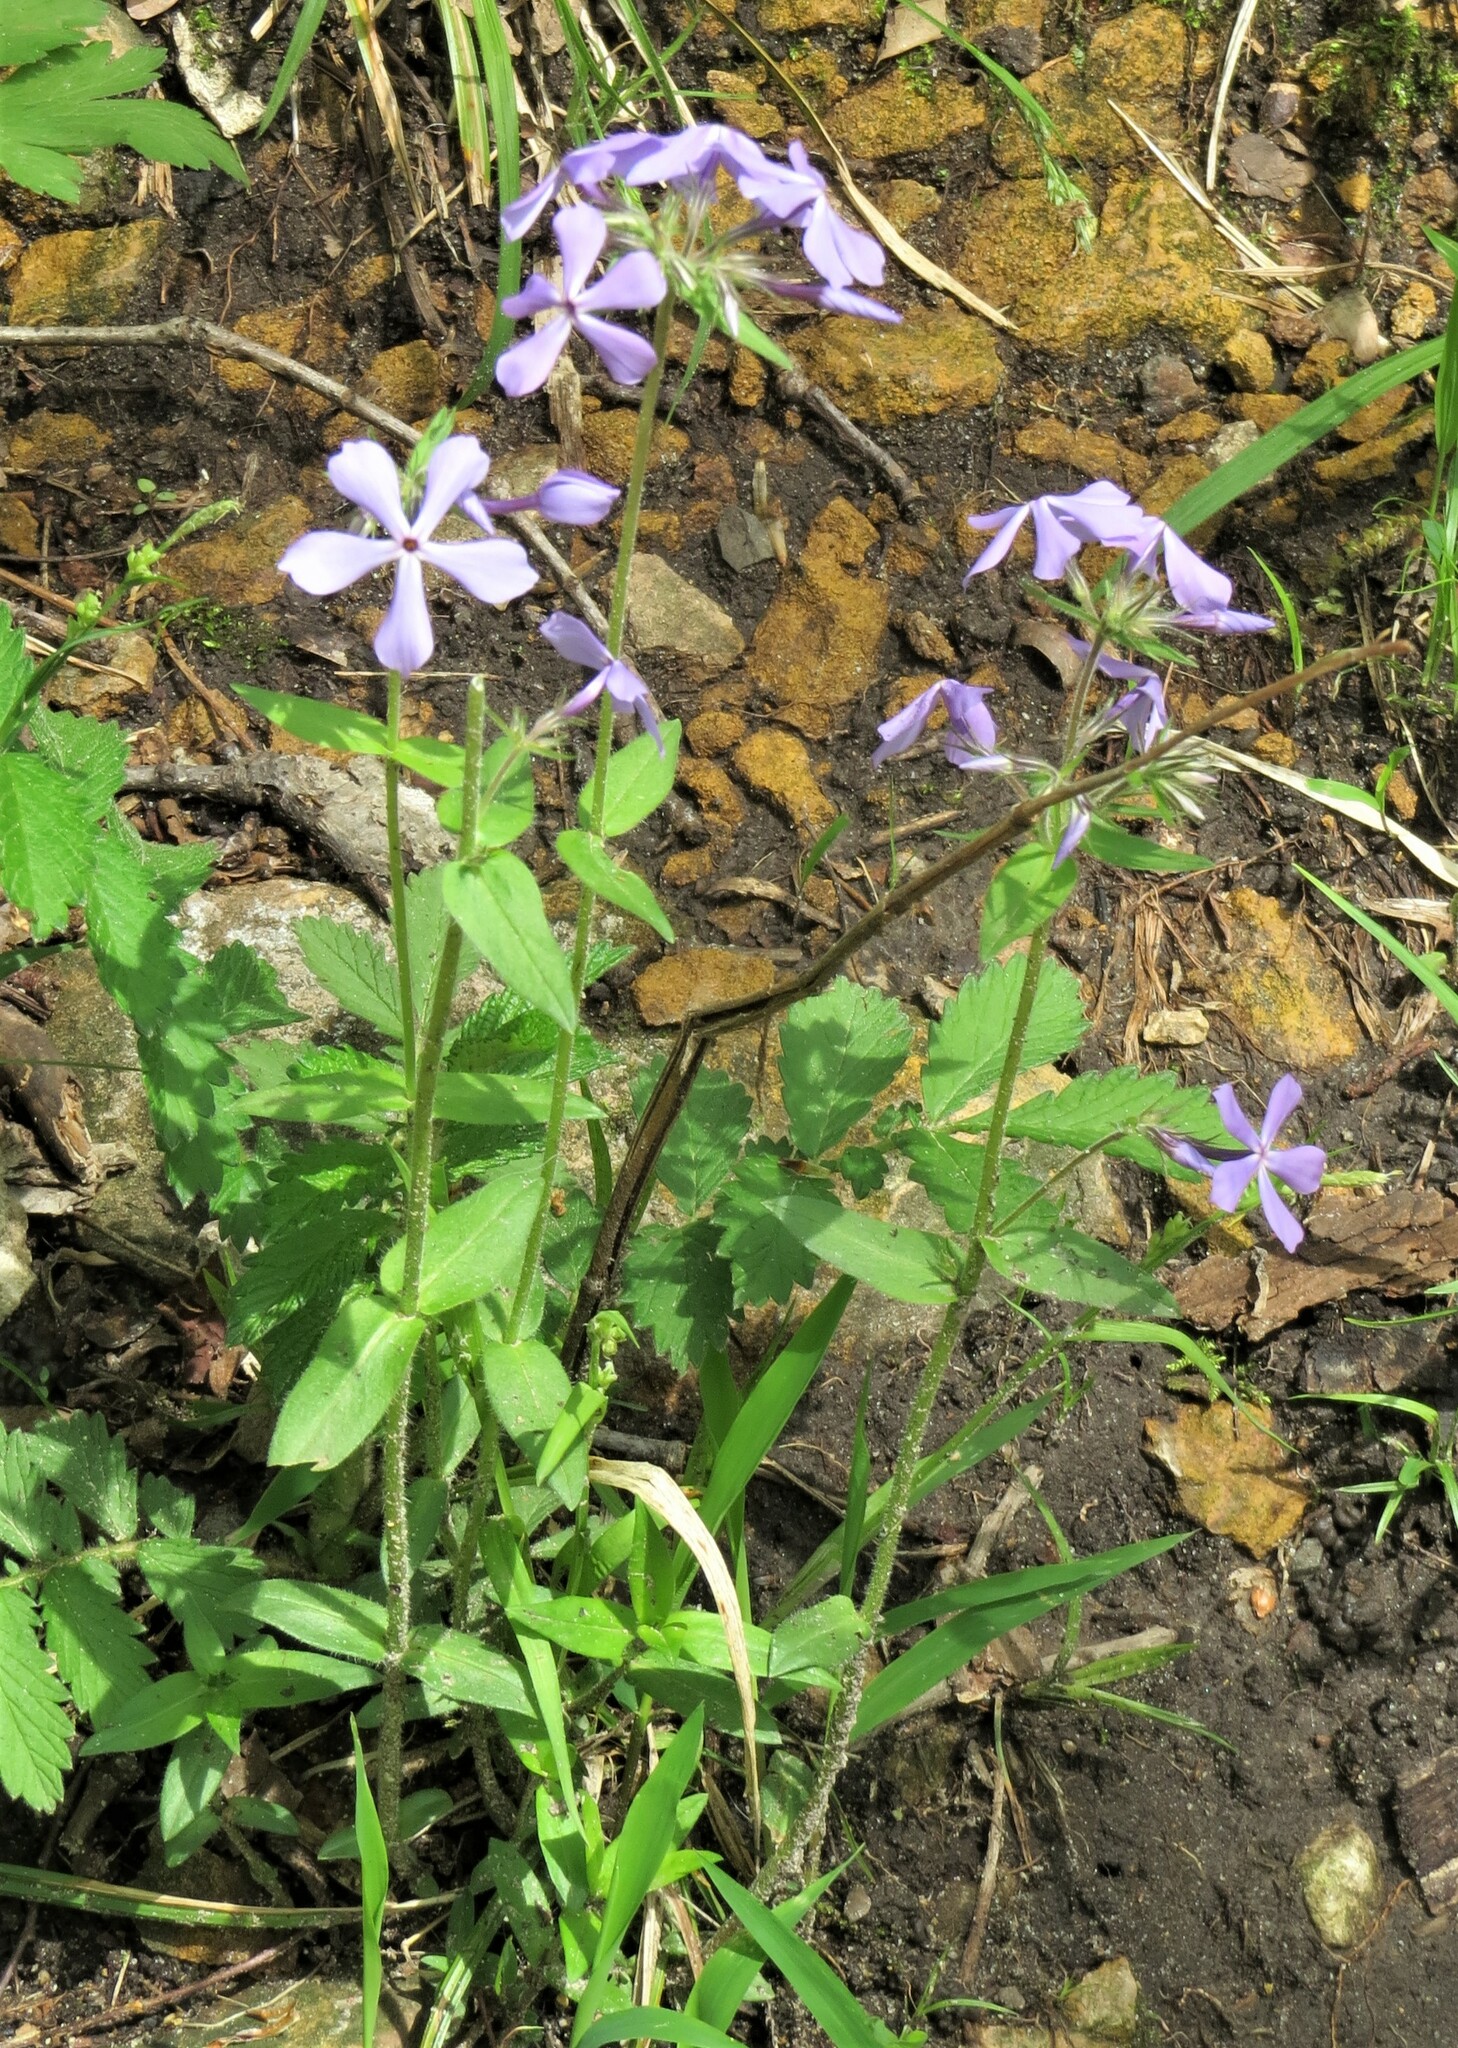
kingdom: Plantae
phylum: Tracheophyta
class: Magnoliopsida
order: Ericales
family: Polemoniaceae
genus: Phlox
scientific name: Phlox divaricata
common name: Blue phlox
